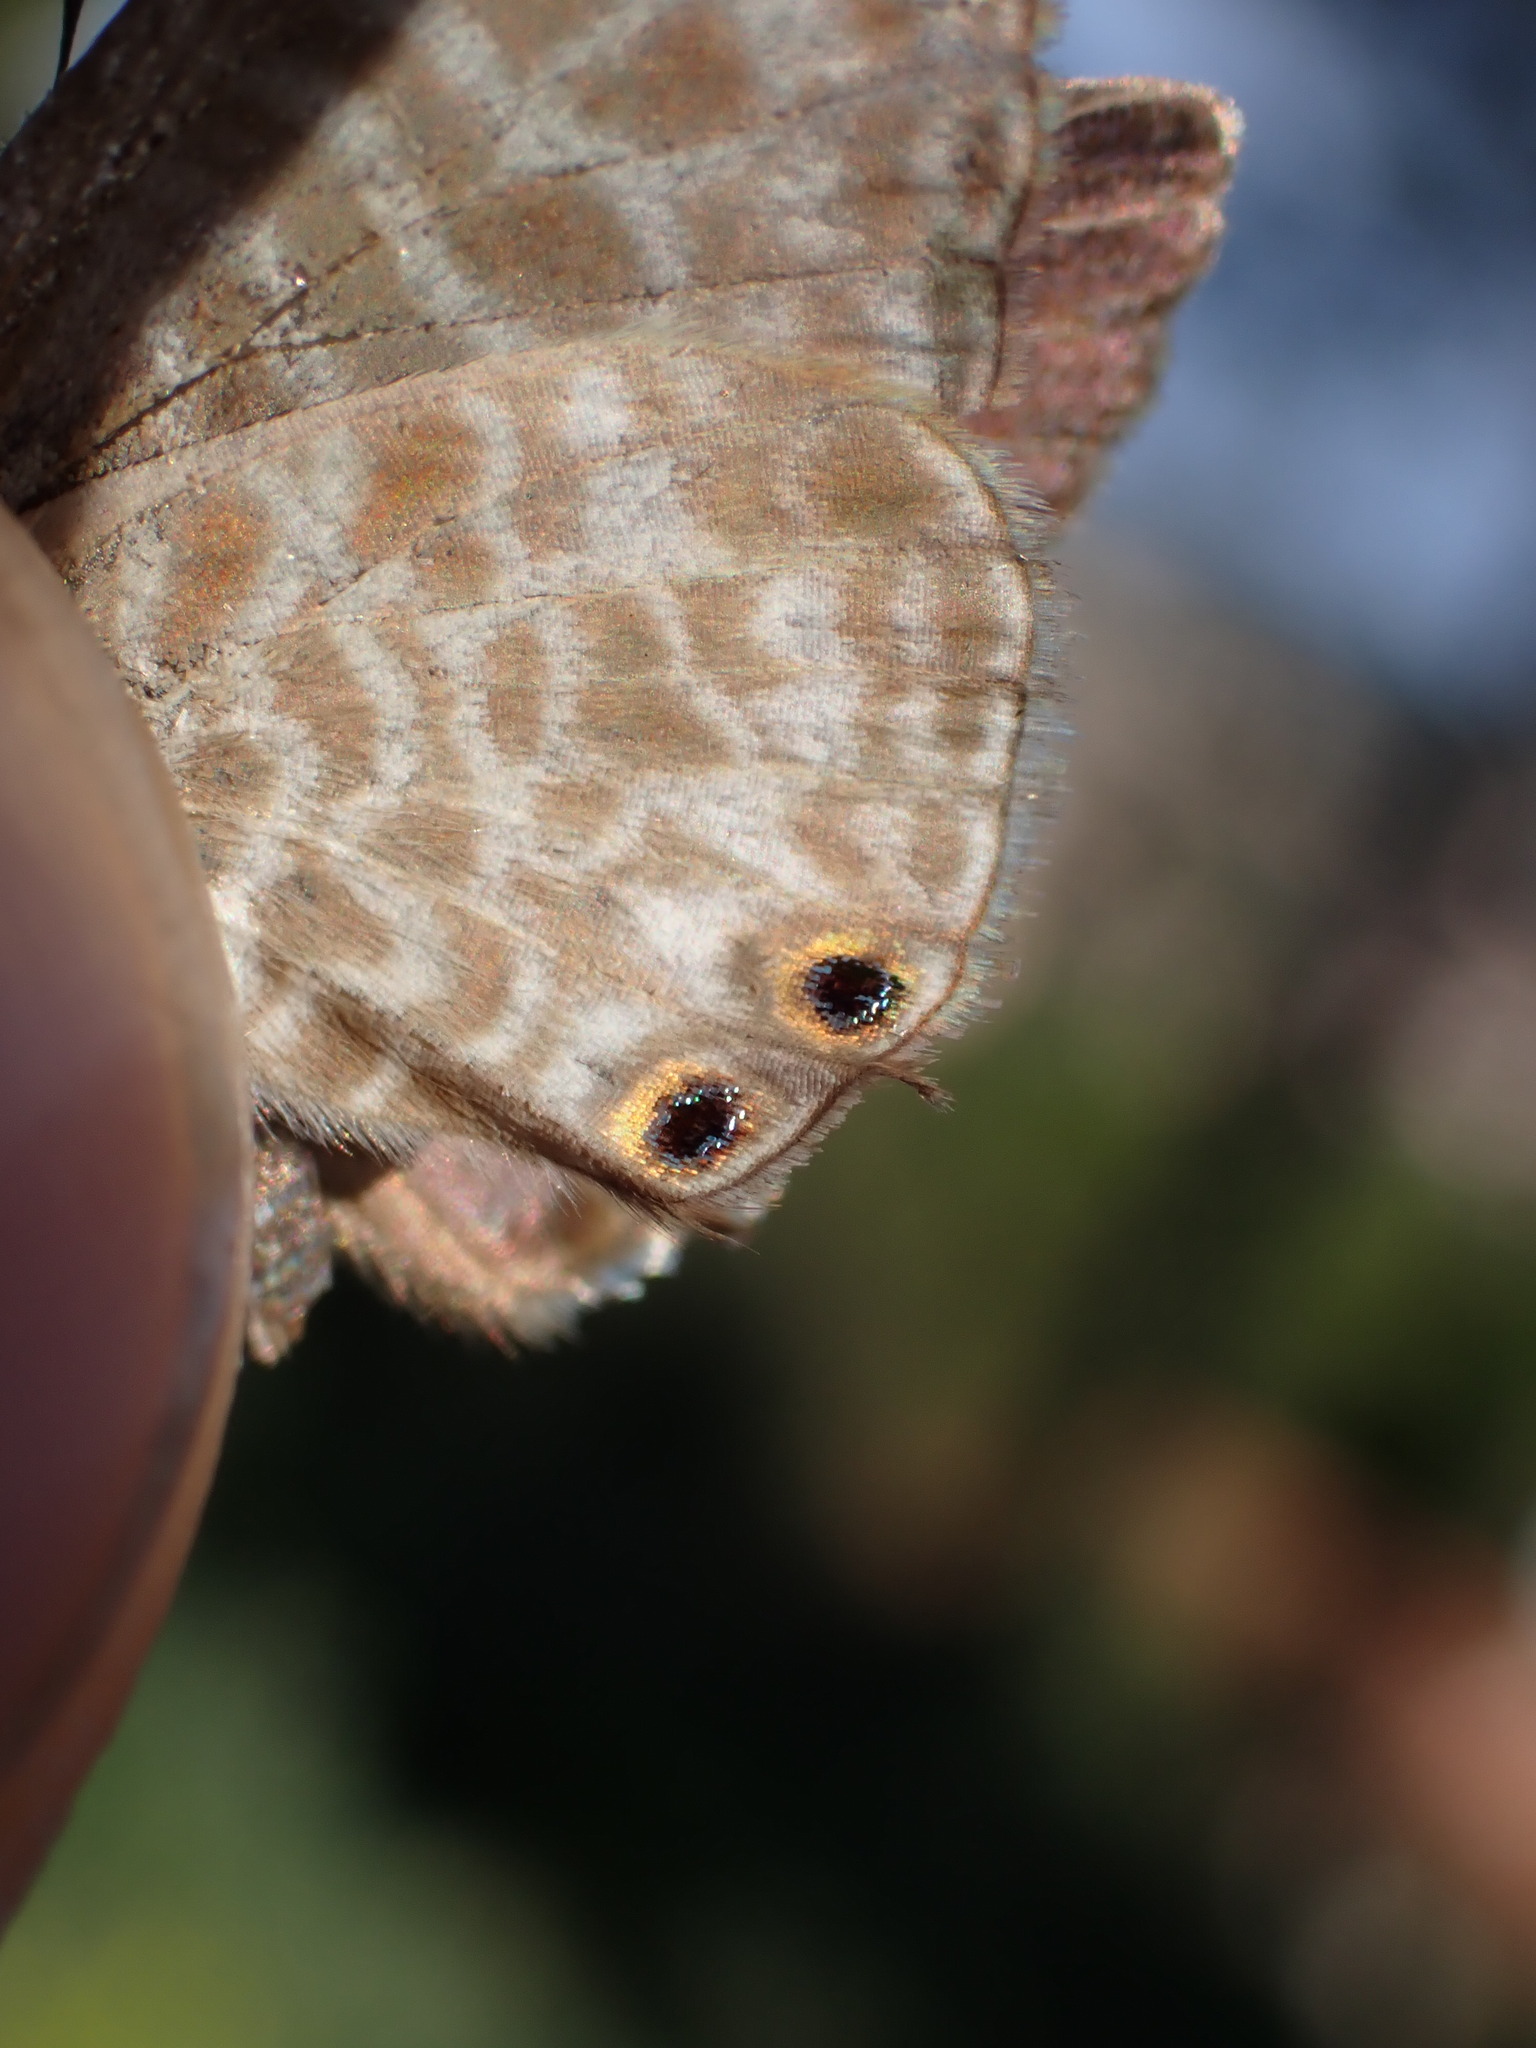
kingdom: Animalia
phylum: Arthropoda
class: Insecta
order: Lepidoptera
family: Lycaenidae
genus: Leptotes
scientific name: Leptotes pirithous
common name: Lang's short-tailed blue
